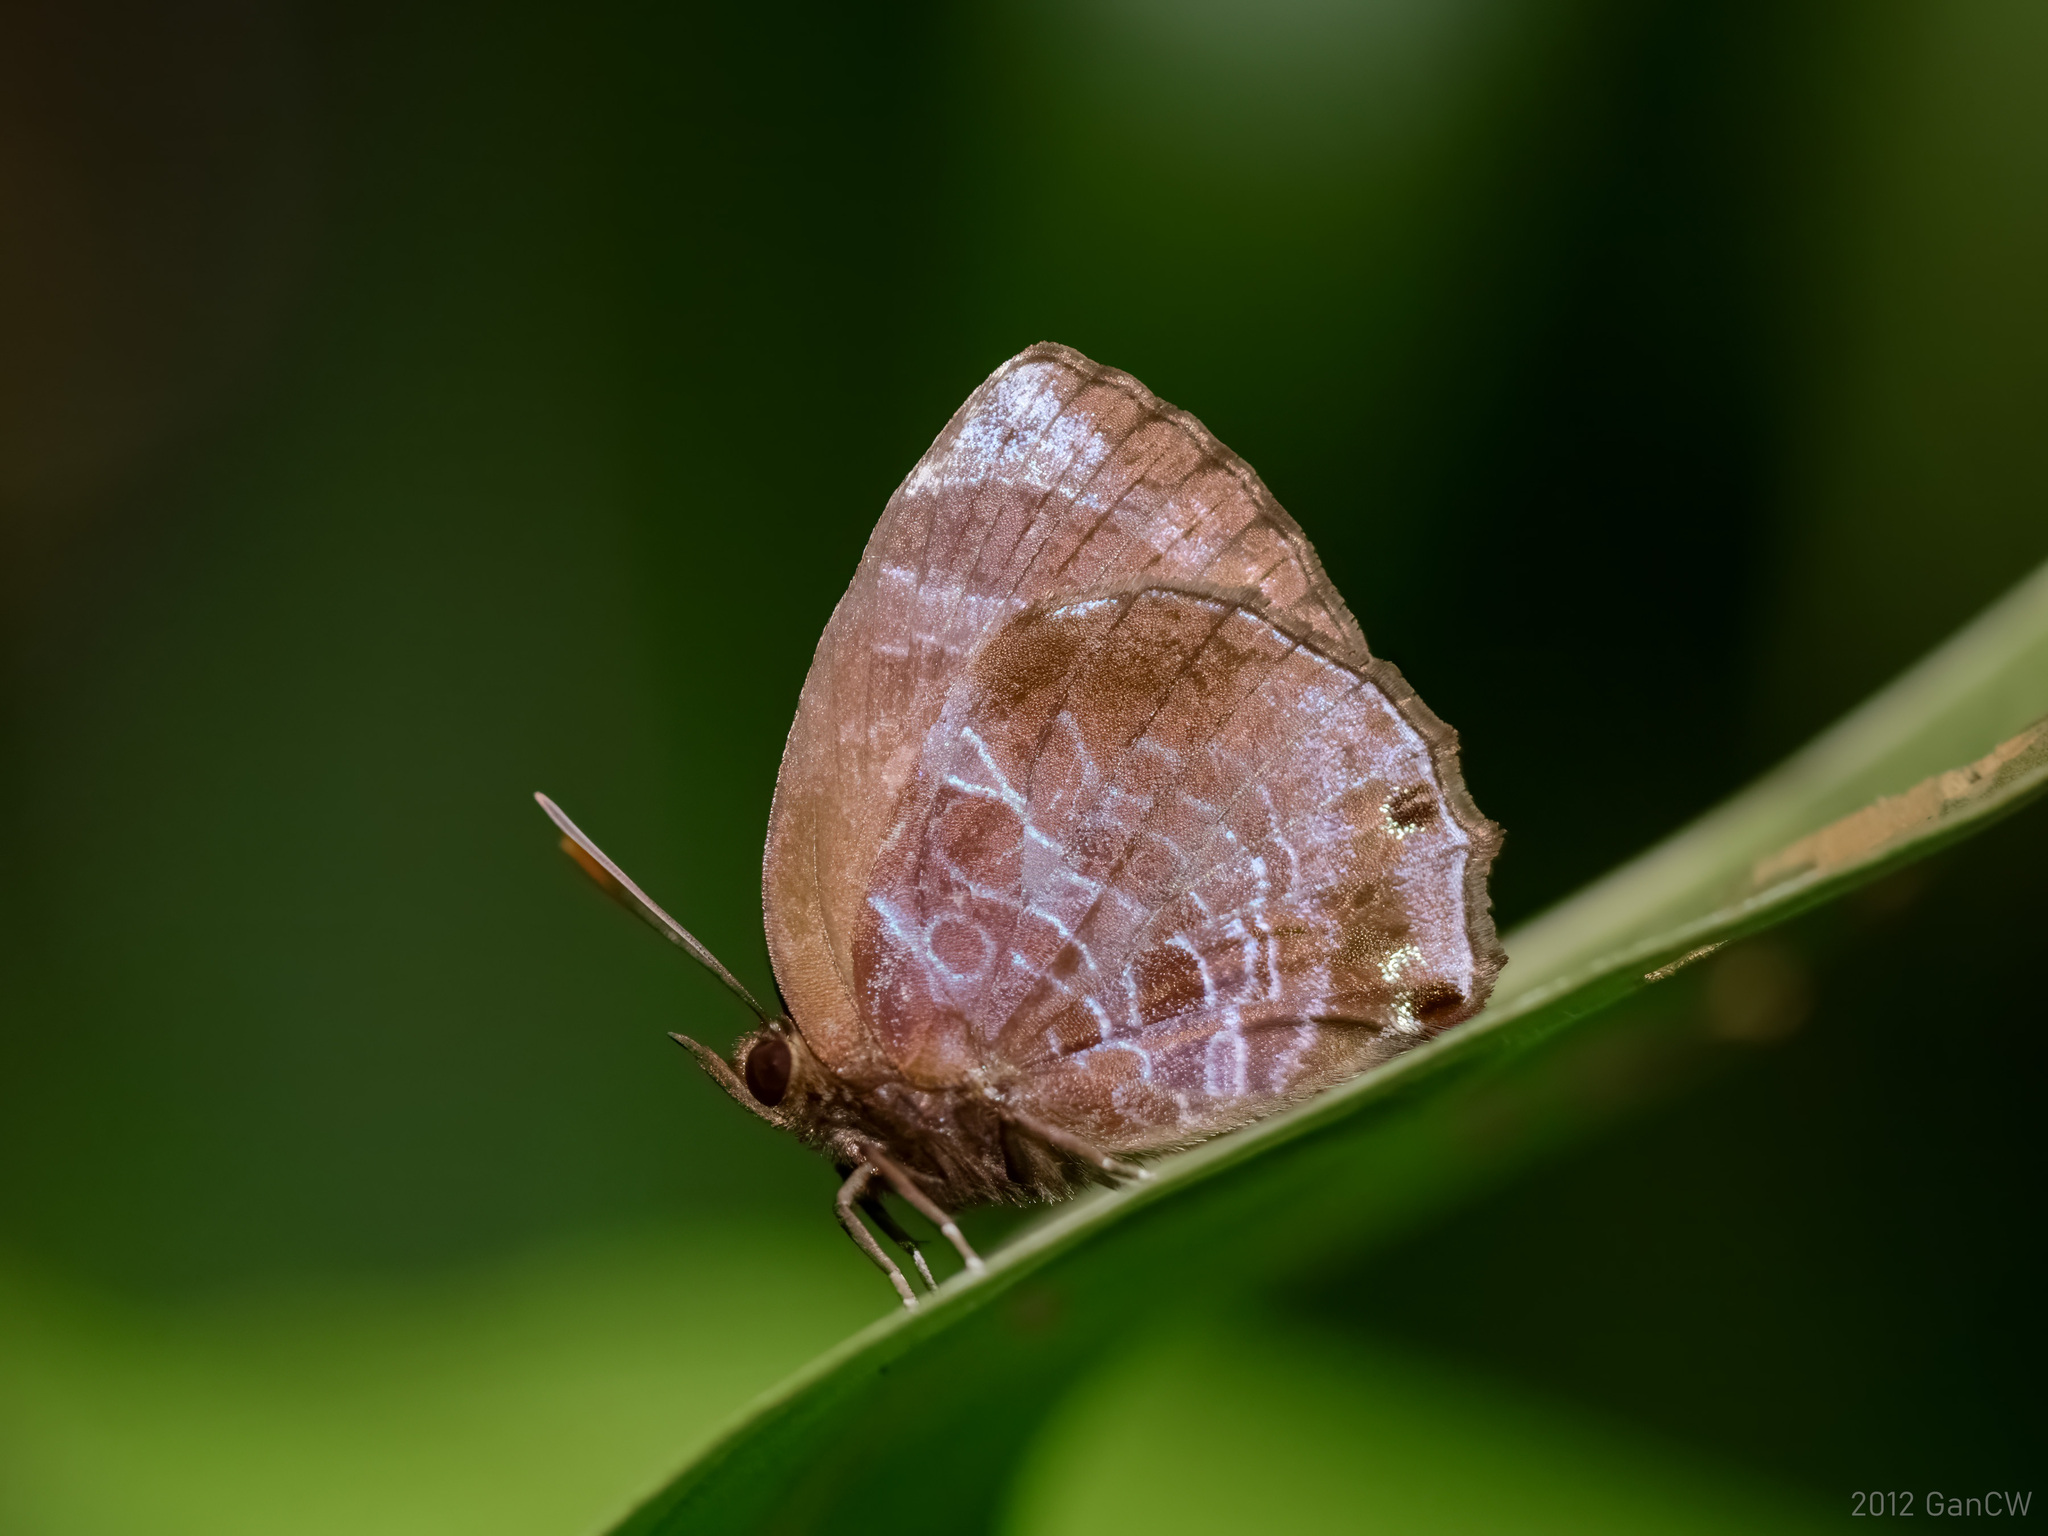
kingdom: Animalia
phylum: Arthropoda
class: Insecta
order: Lepidoptera
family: Lycaenidae
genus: Flos
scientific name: Flos
